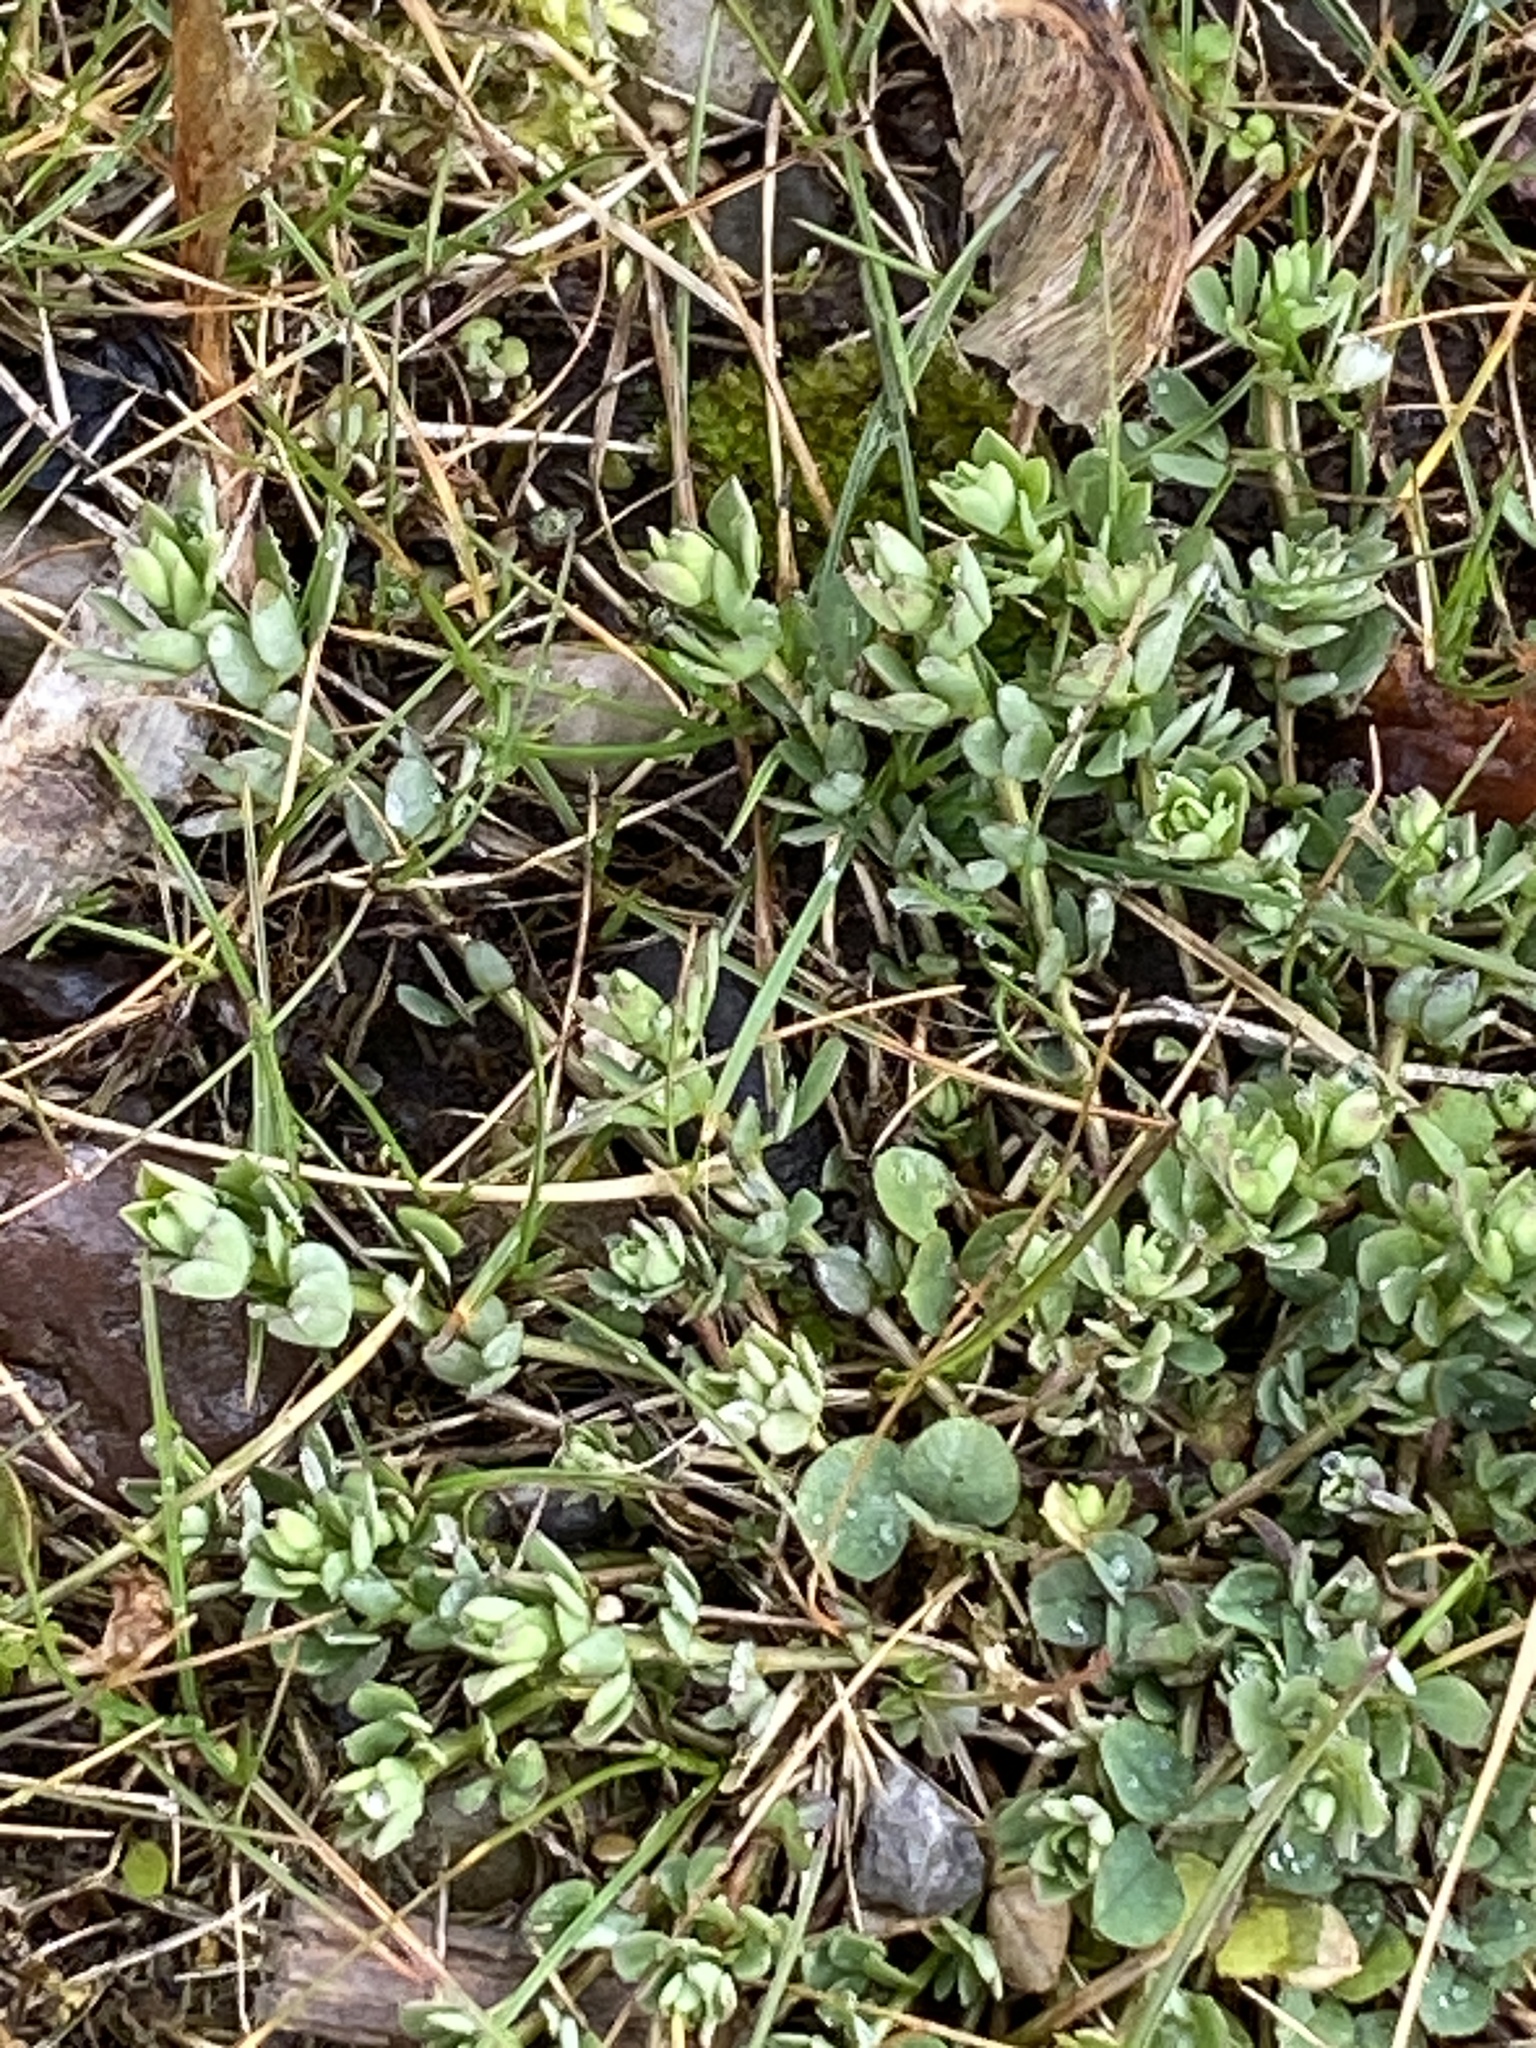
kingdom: Plantae
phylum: Tracheophyta
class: Magnoliopsida
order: Fabales
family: Fabaceae
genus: Lotus
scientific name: Lotus corniculatus
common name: Common bird's-foot-trefoil
